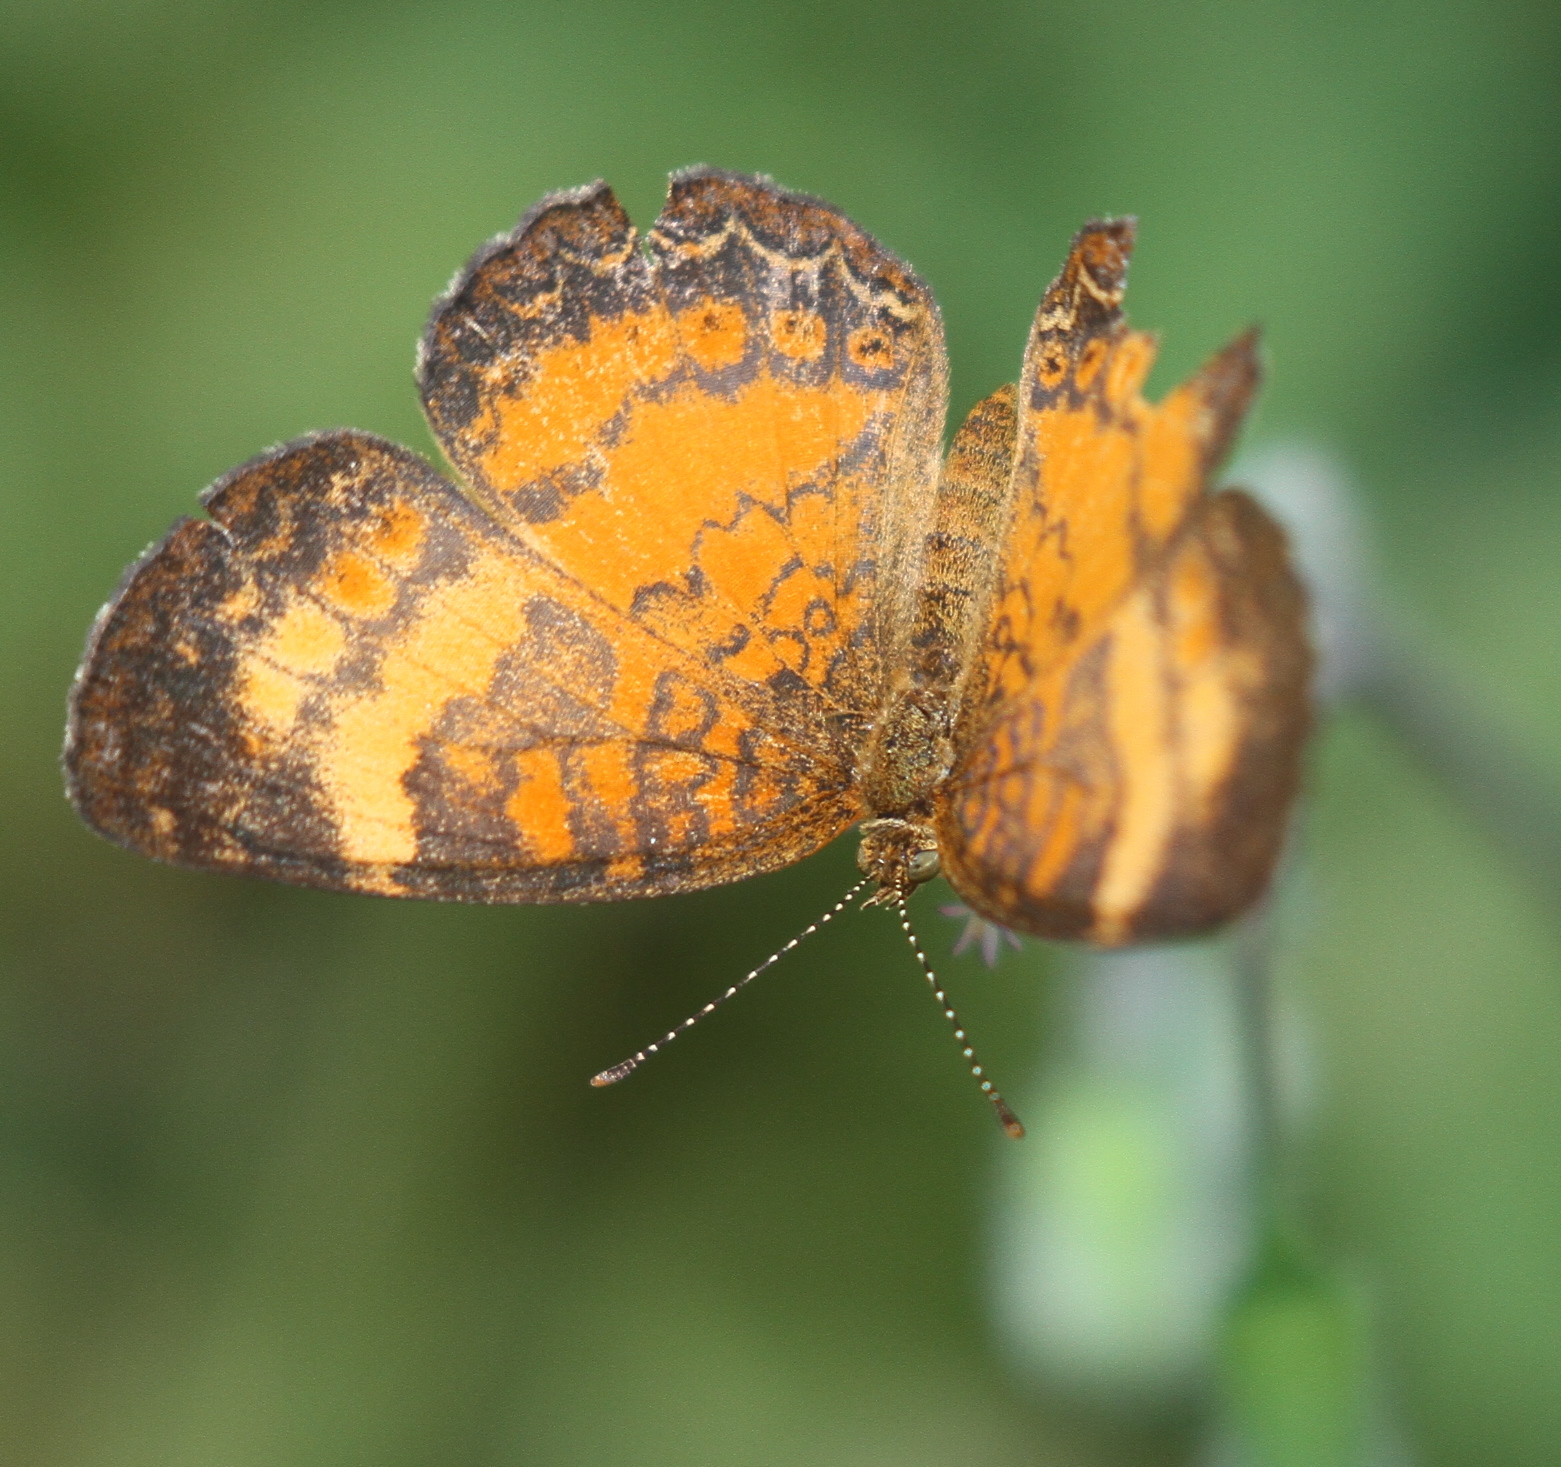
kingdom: Animalia
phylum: Arthropoda
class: Insecta
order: Lepidoptera
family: Nymphalidae
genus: Mazia
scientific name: Mazia amazonica
